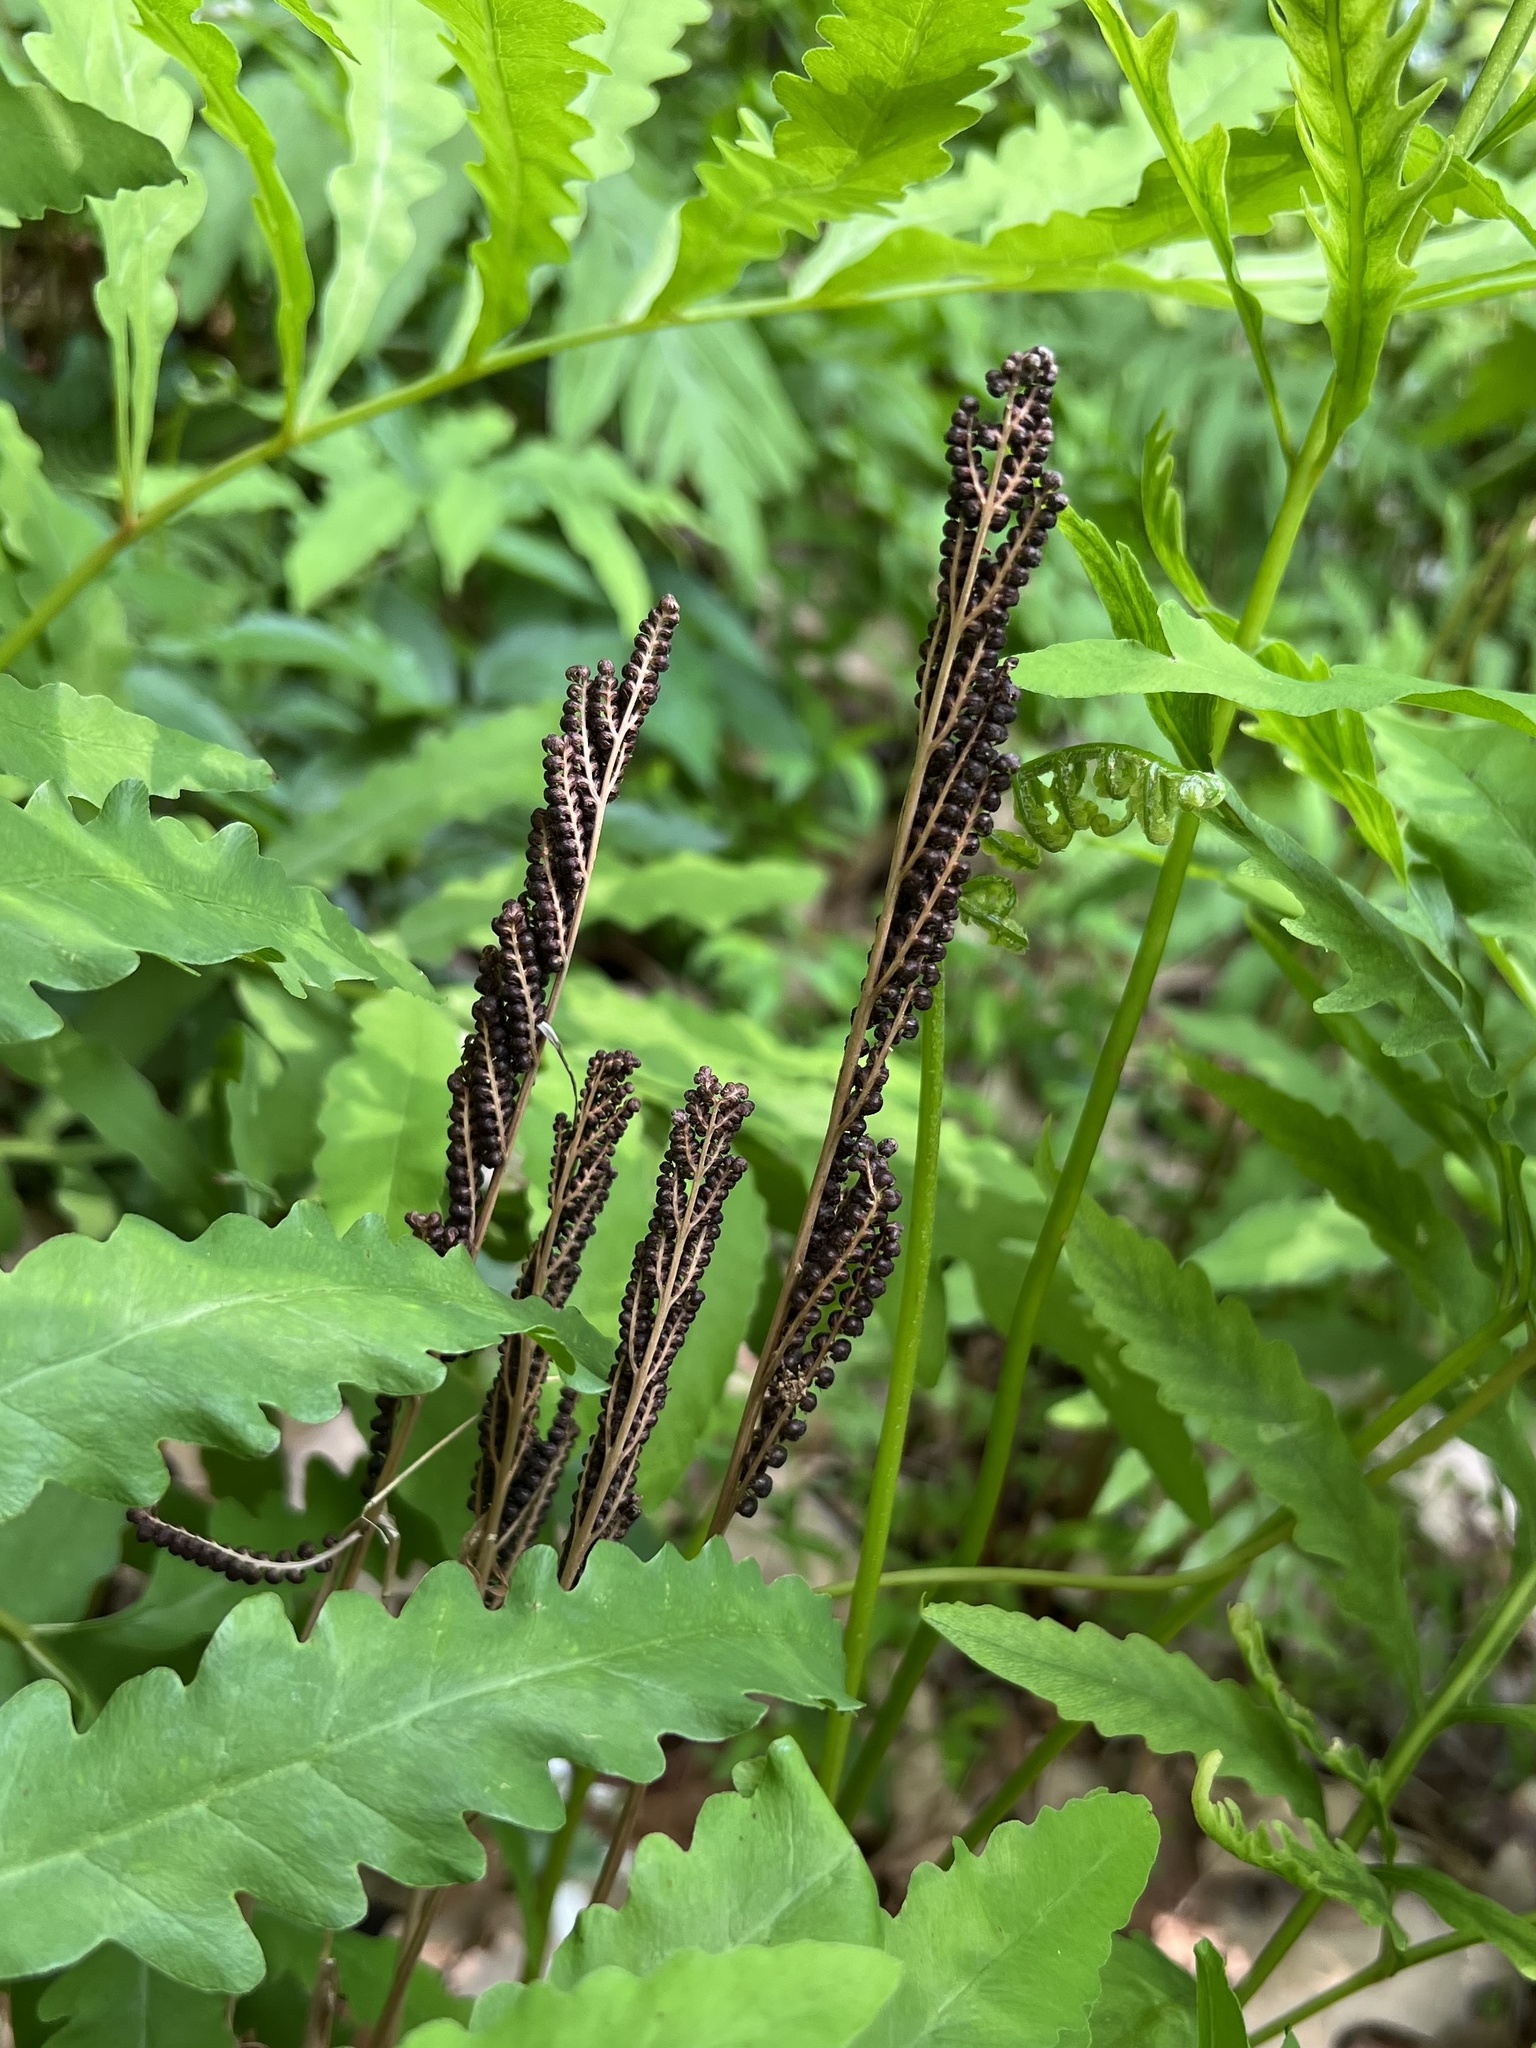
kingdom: Plantae
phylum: Tracheophyta
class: Polypodiopsida
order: Polypodiales
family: Onocleaceae
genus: Onoclea
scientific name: Onoclea sensibilis
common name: Sensitive fern
